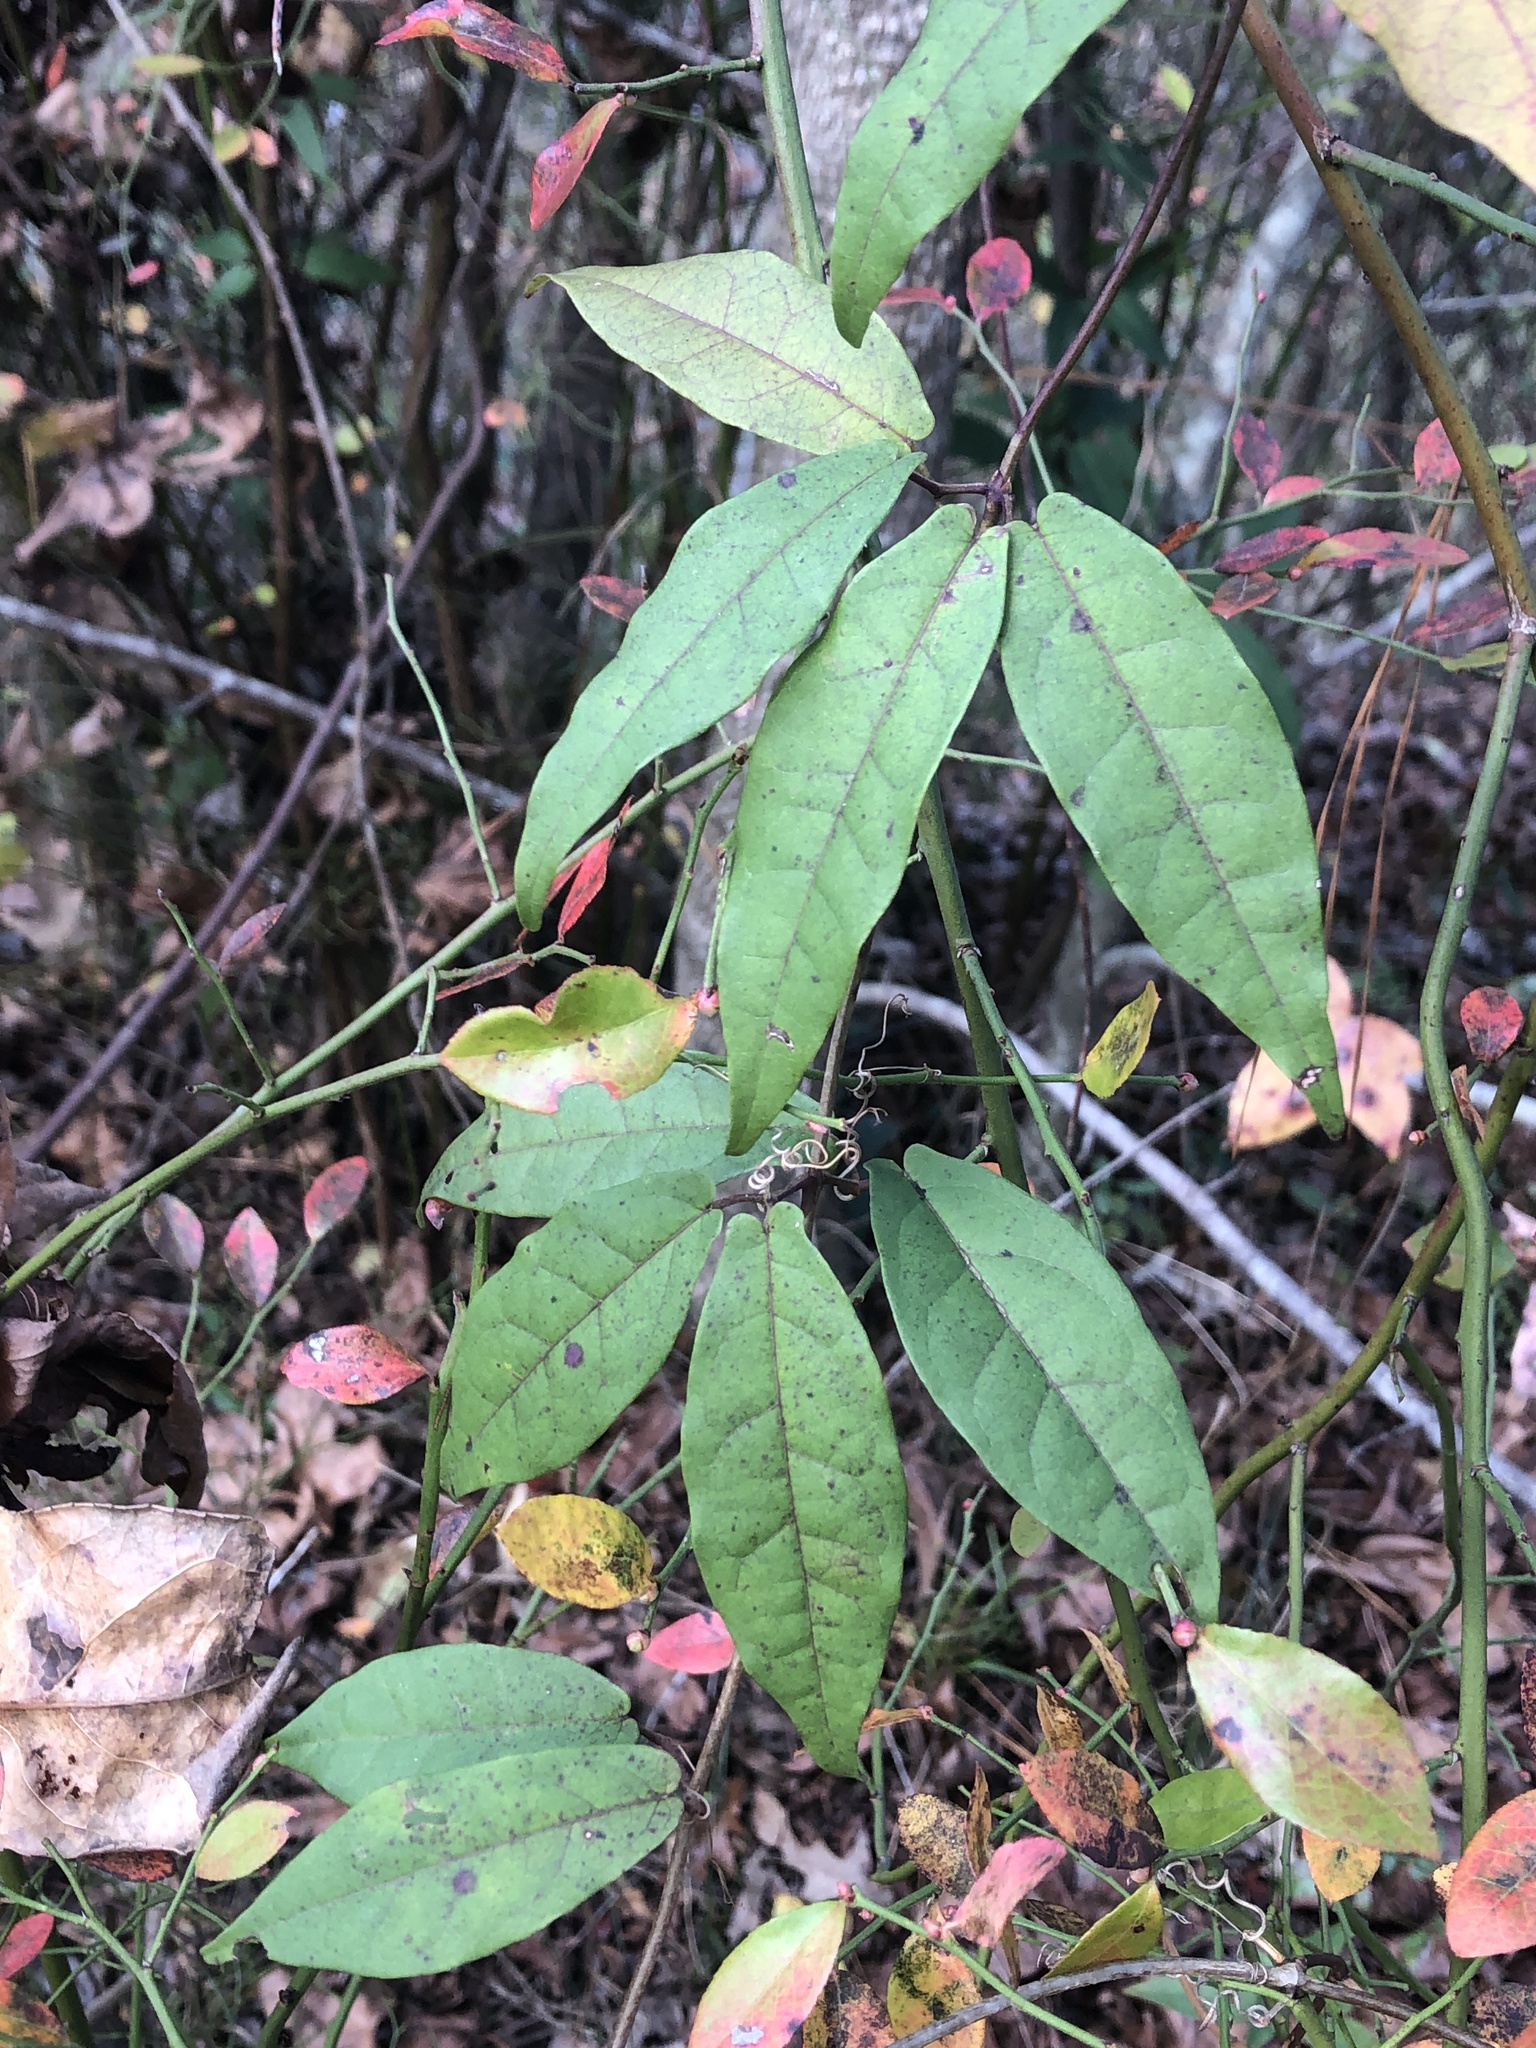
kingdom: Plantae
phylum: Tracheophyta
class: Magnoliopsida
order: Lamiales
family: Bignoniaceae
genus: Bignonia
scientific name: Bignonia capreolata
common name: Crossvine
